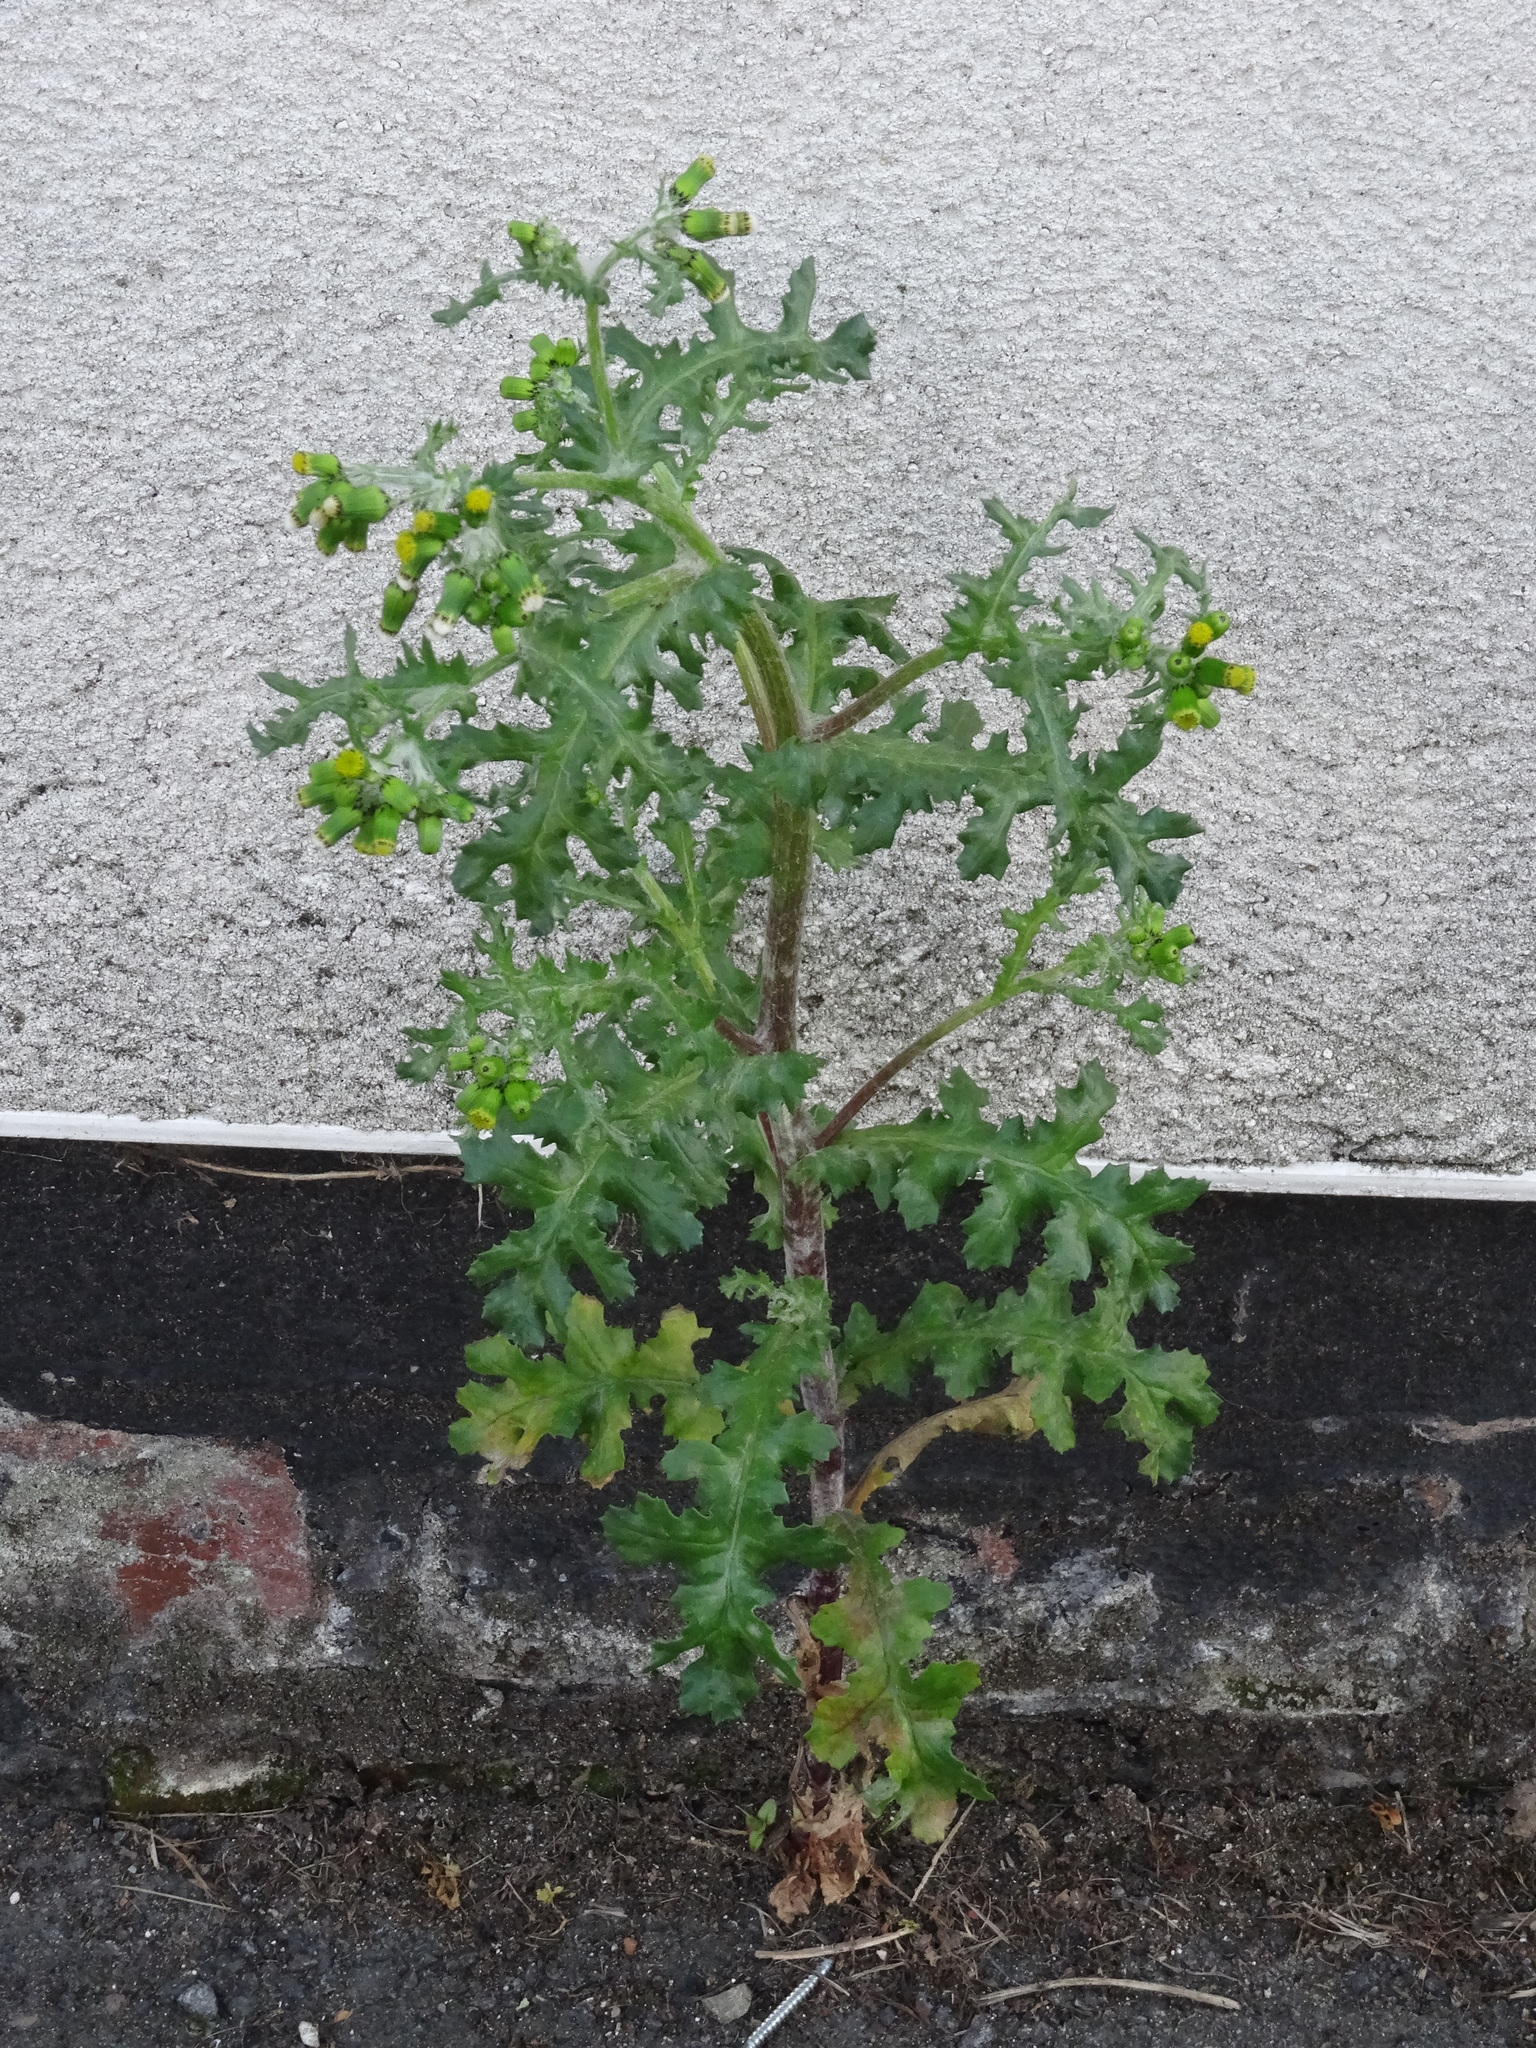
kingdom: Plantae
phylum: Tracheophyta
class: Magnoliopsida
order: Asterales
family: Asteraceae
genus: Senecio
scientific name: Senecio vulgaris
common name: Old-man-in-the-spring
